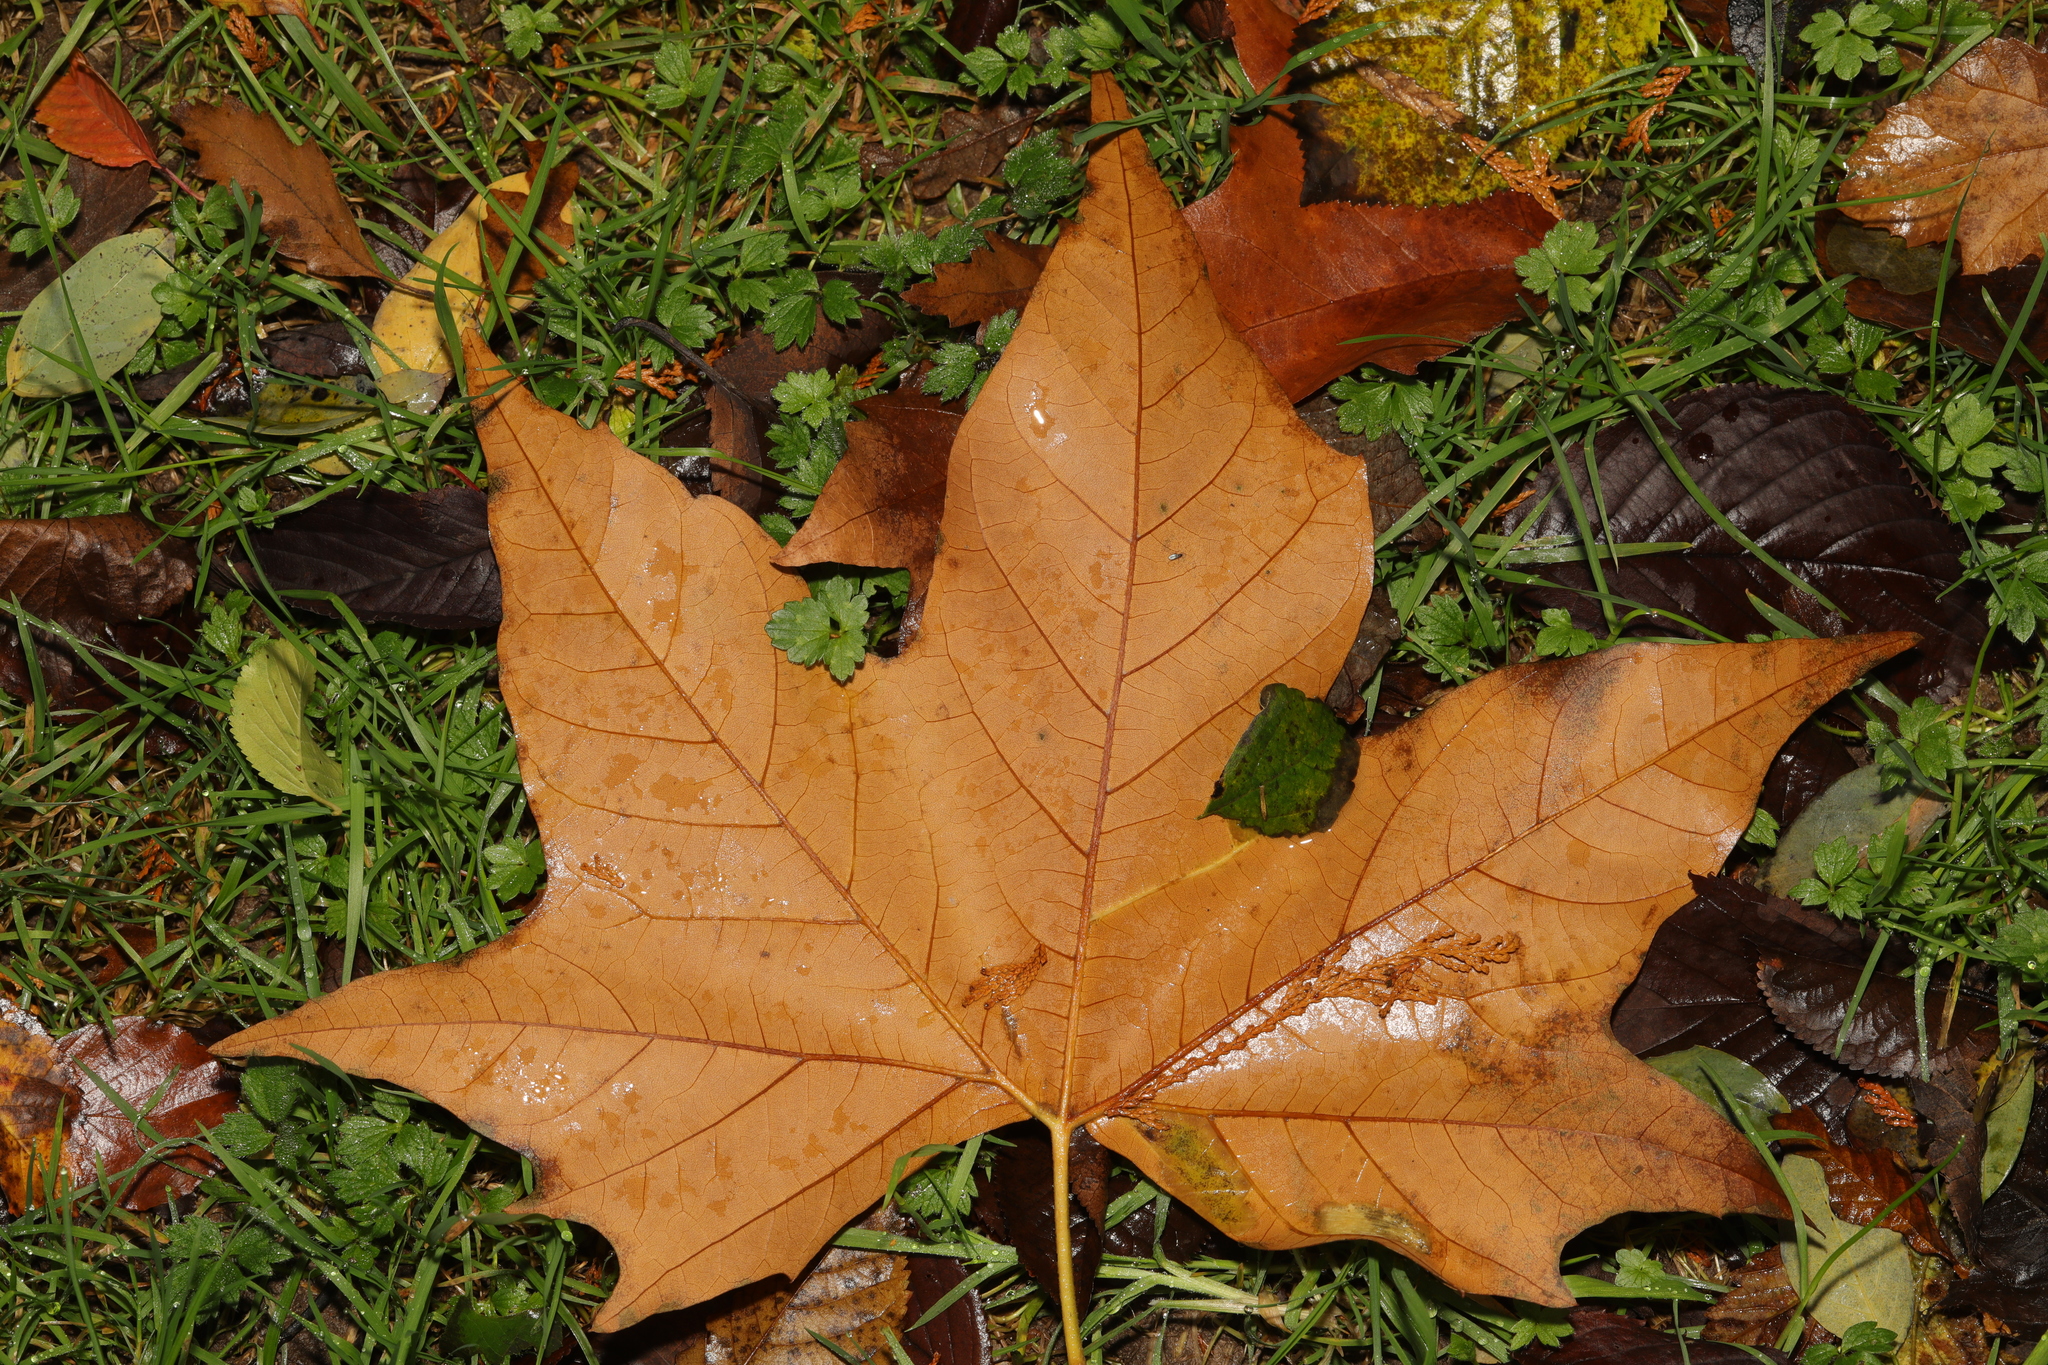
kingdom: Plantae
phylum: Tracheophyta
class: Magnoliopsida
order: Saxifragales
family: Altingiaceae
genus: Liquidambar
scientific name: Liquidambar styraciflua
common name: Sweet gum
